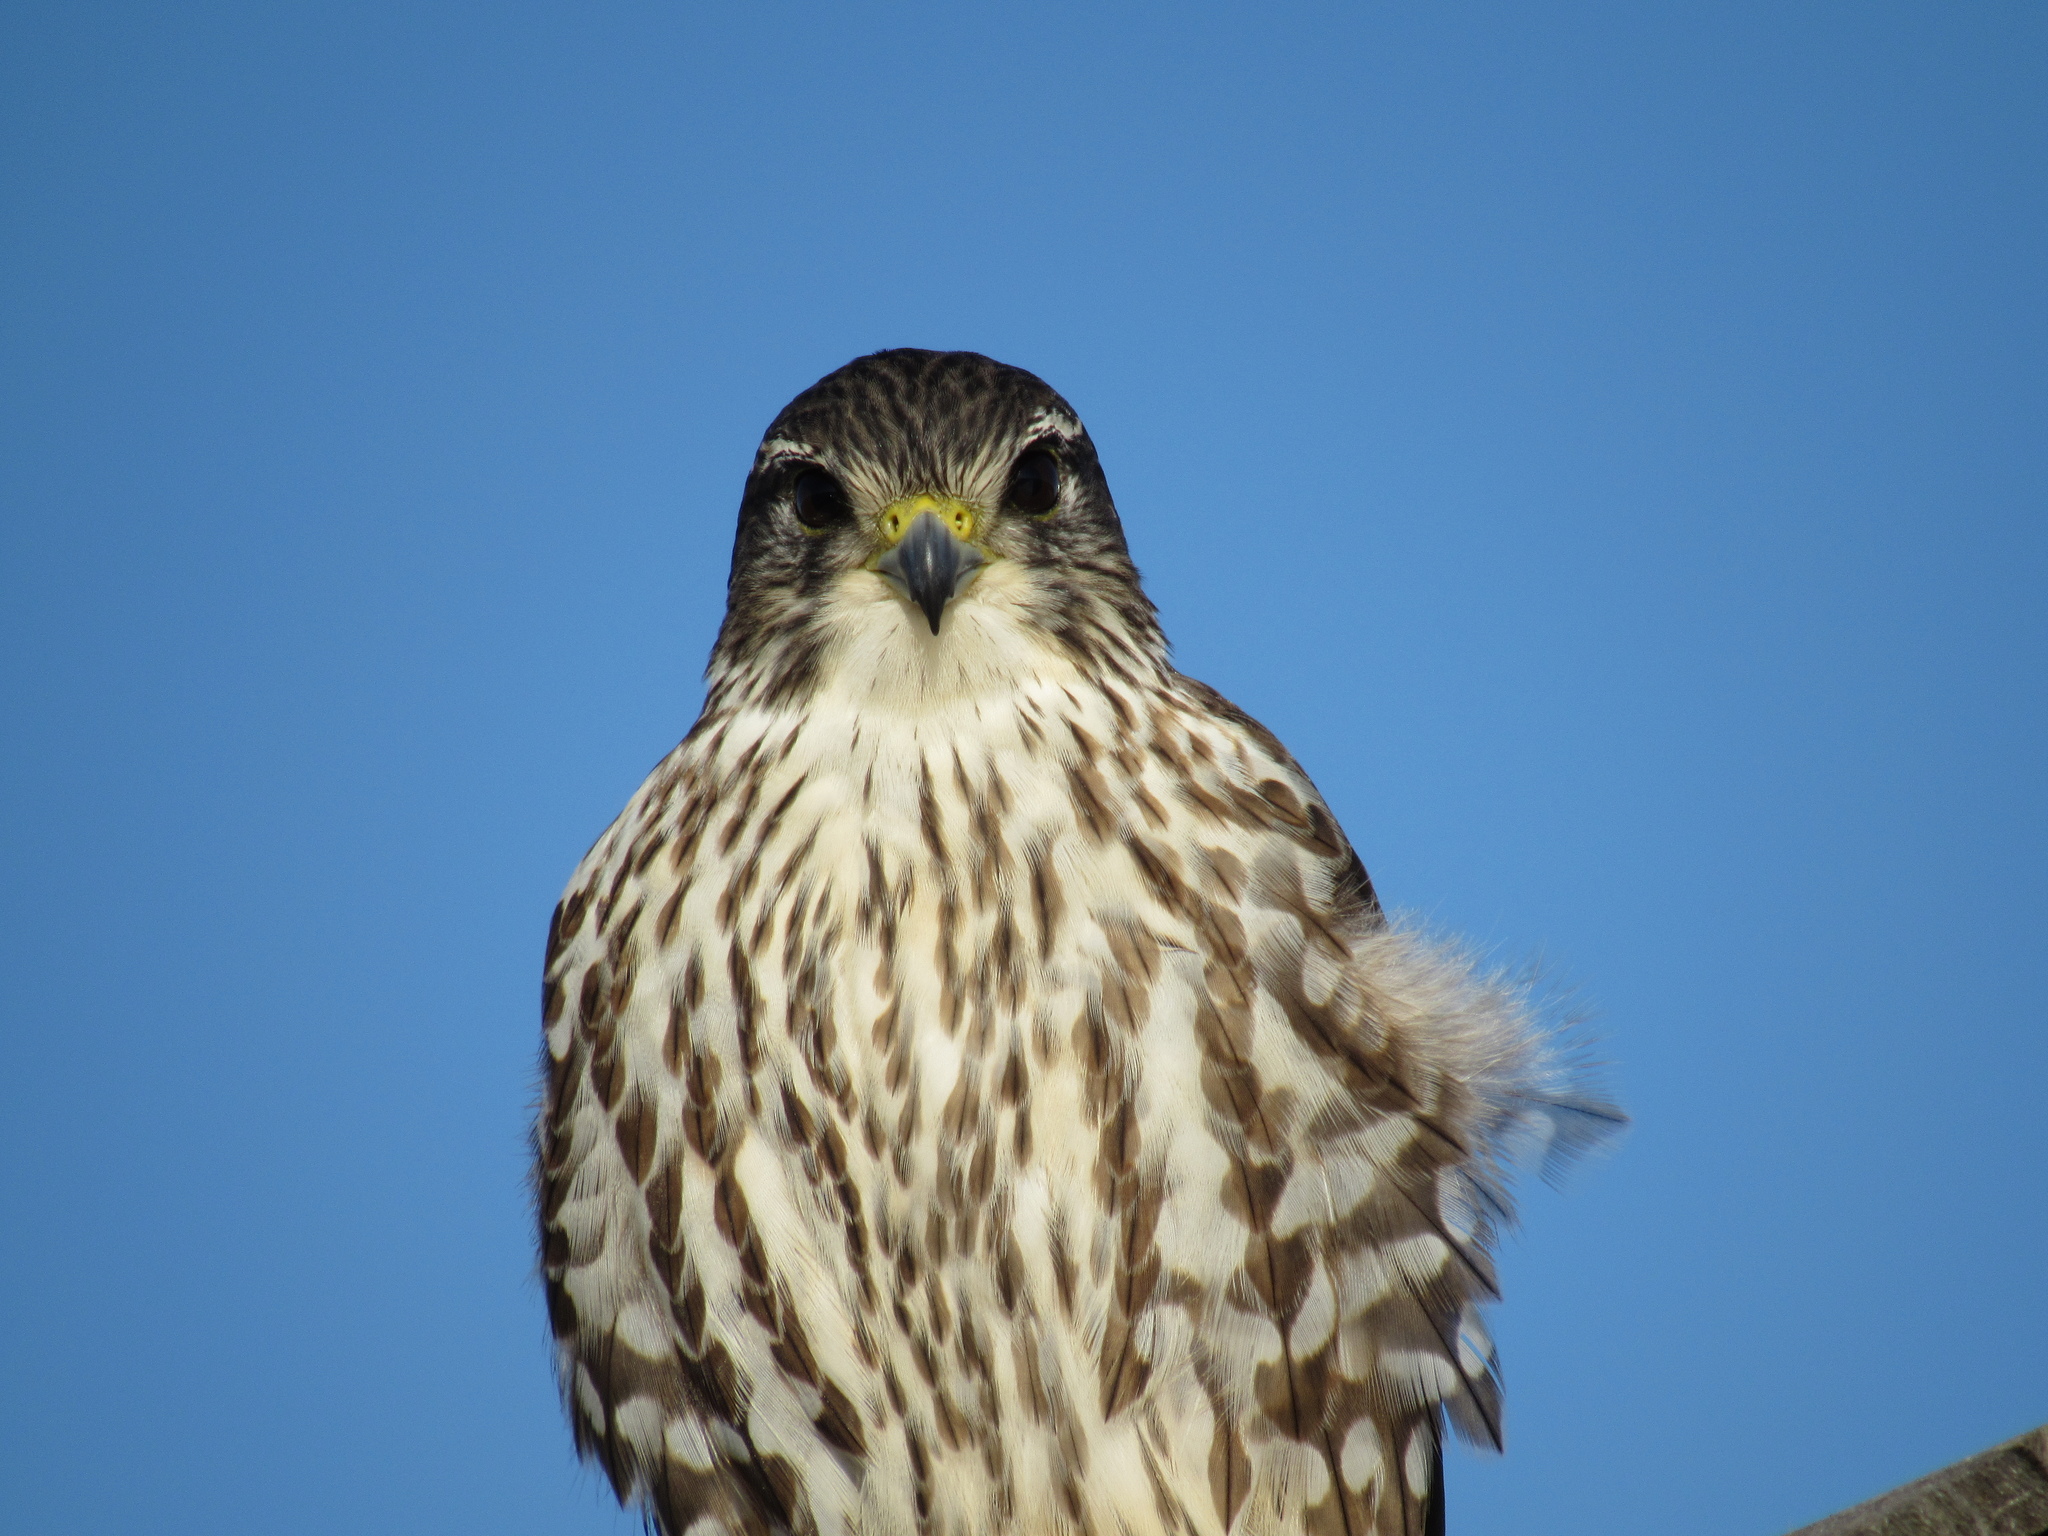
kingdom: Animalia
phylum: Chordata
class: Aves
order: Falconiformes
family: Falconidae
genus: Falco
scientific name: Falco columbarius
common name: Merlin
